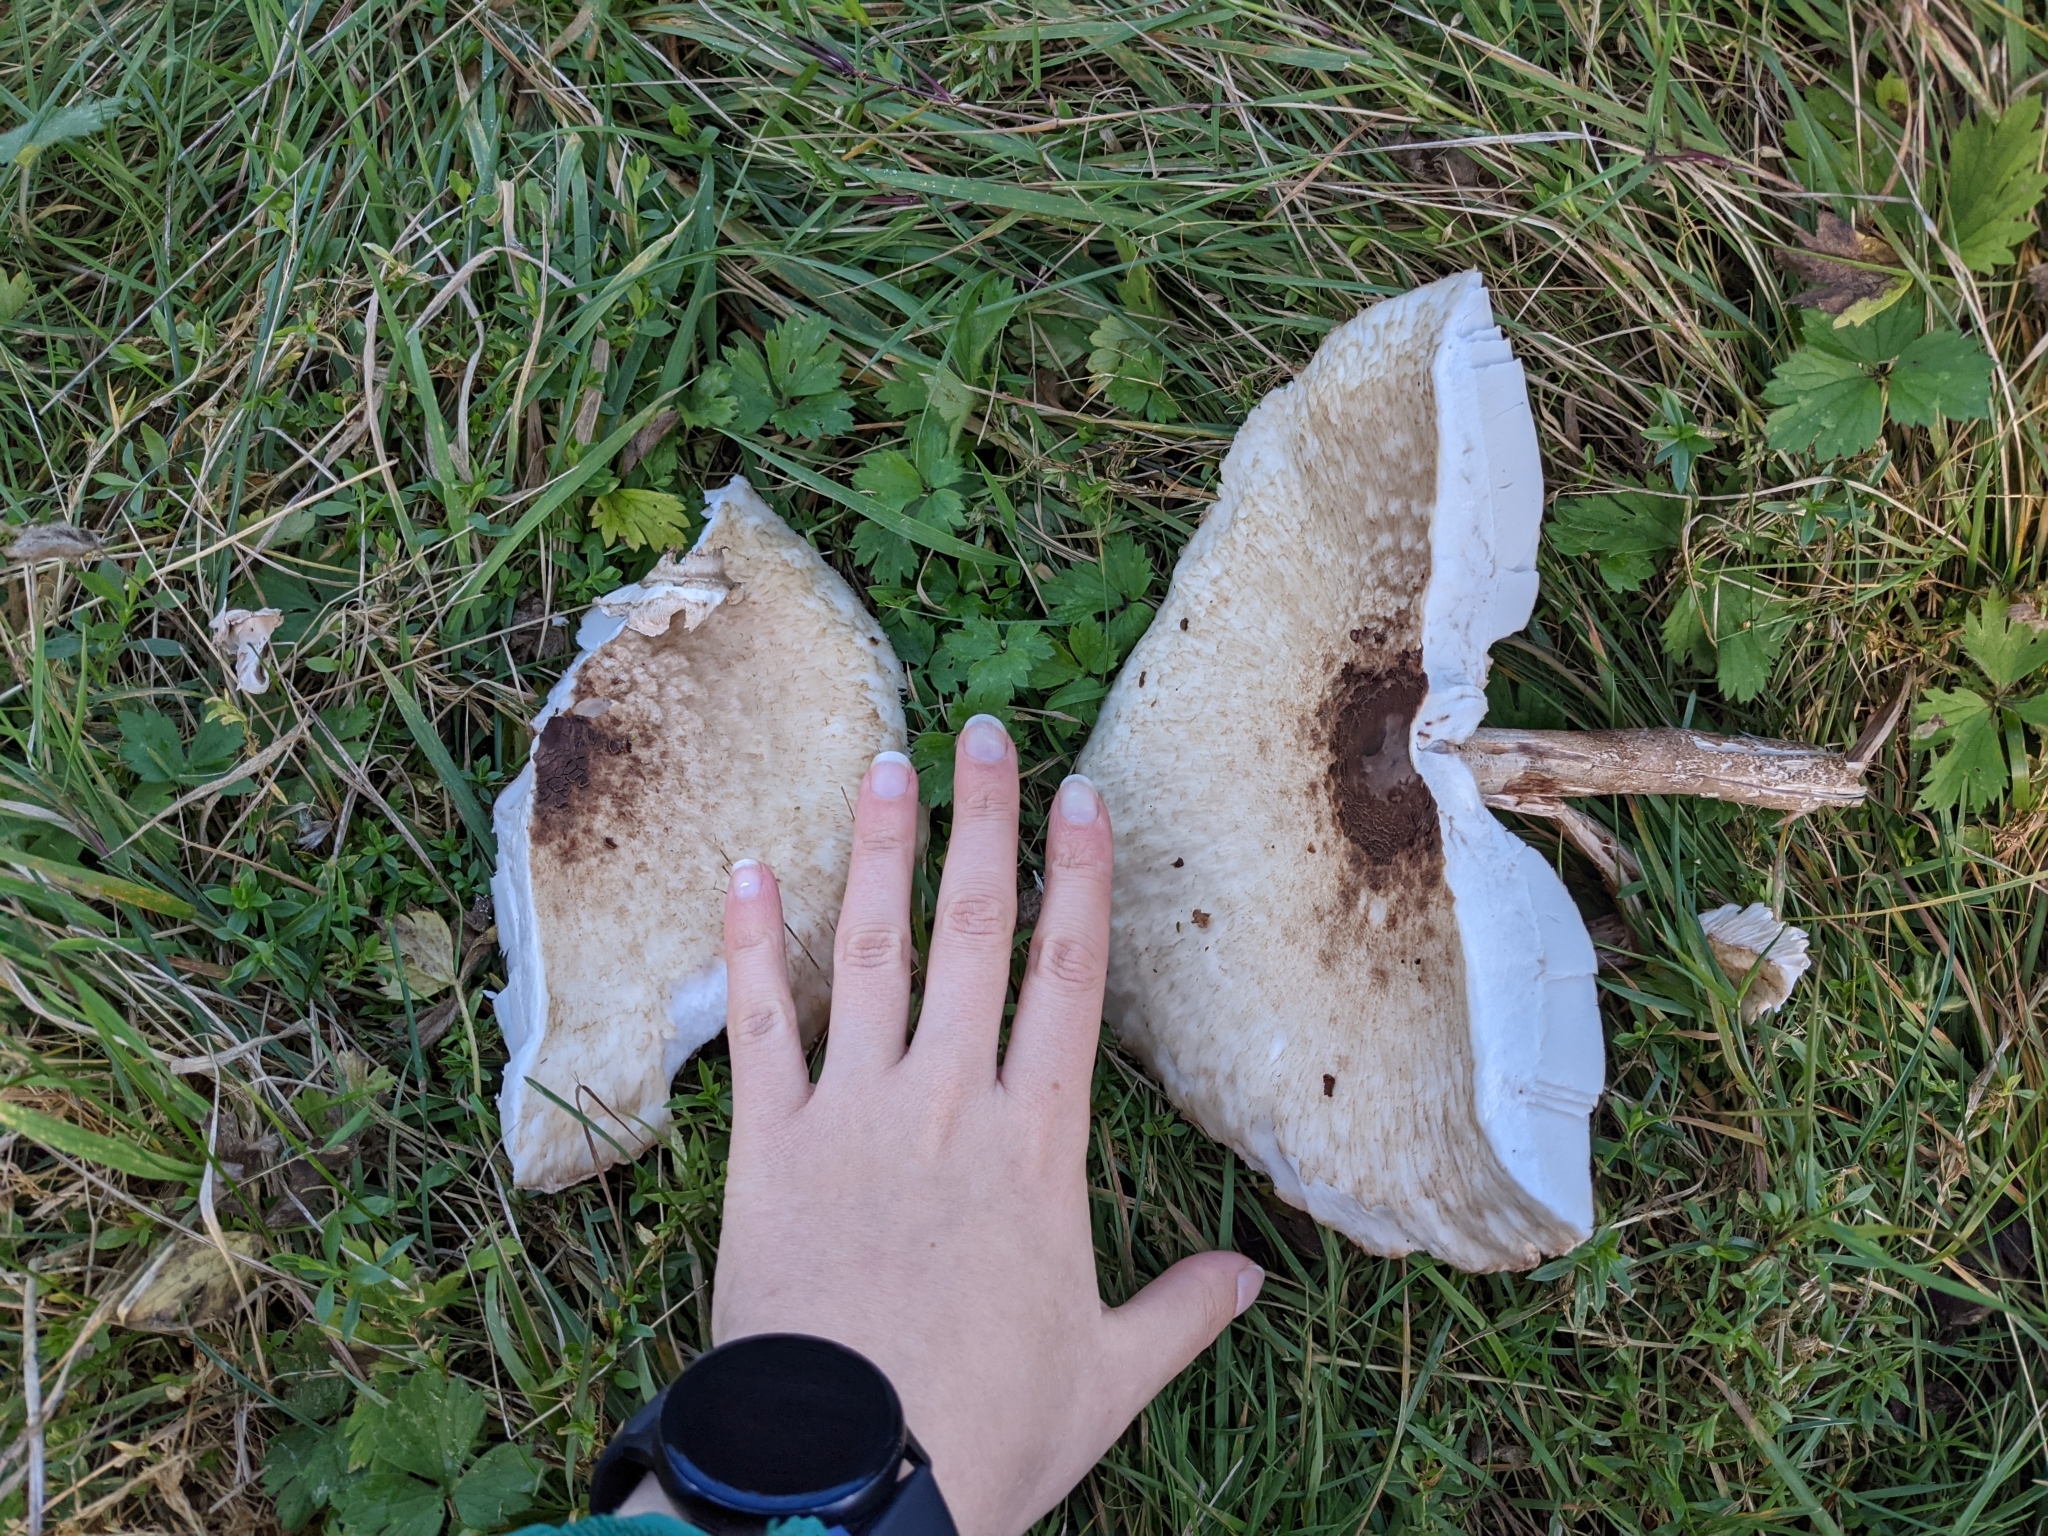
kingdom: Fungi
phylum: Basidiomycota
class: Agaricomycetes
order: Agaricales
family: Agaricaceae
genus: Macrolepiota
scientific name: Macrolepiota procera
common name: Parasol
